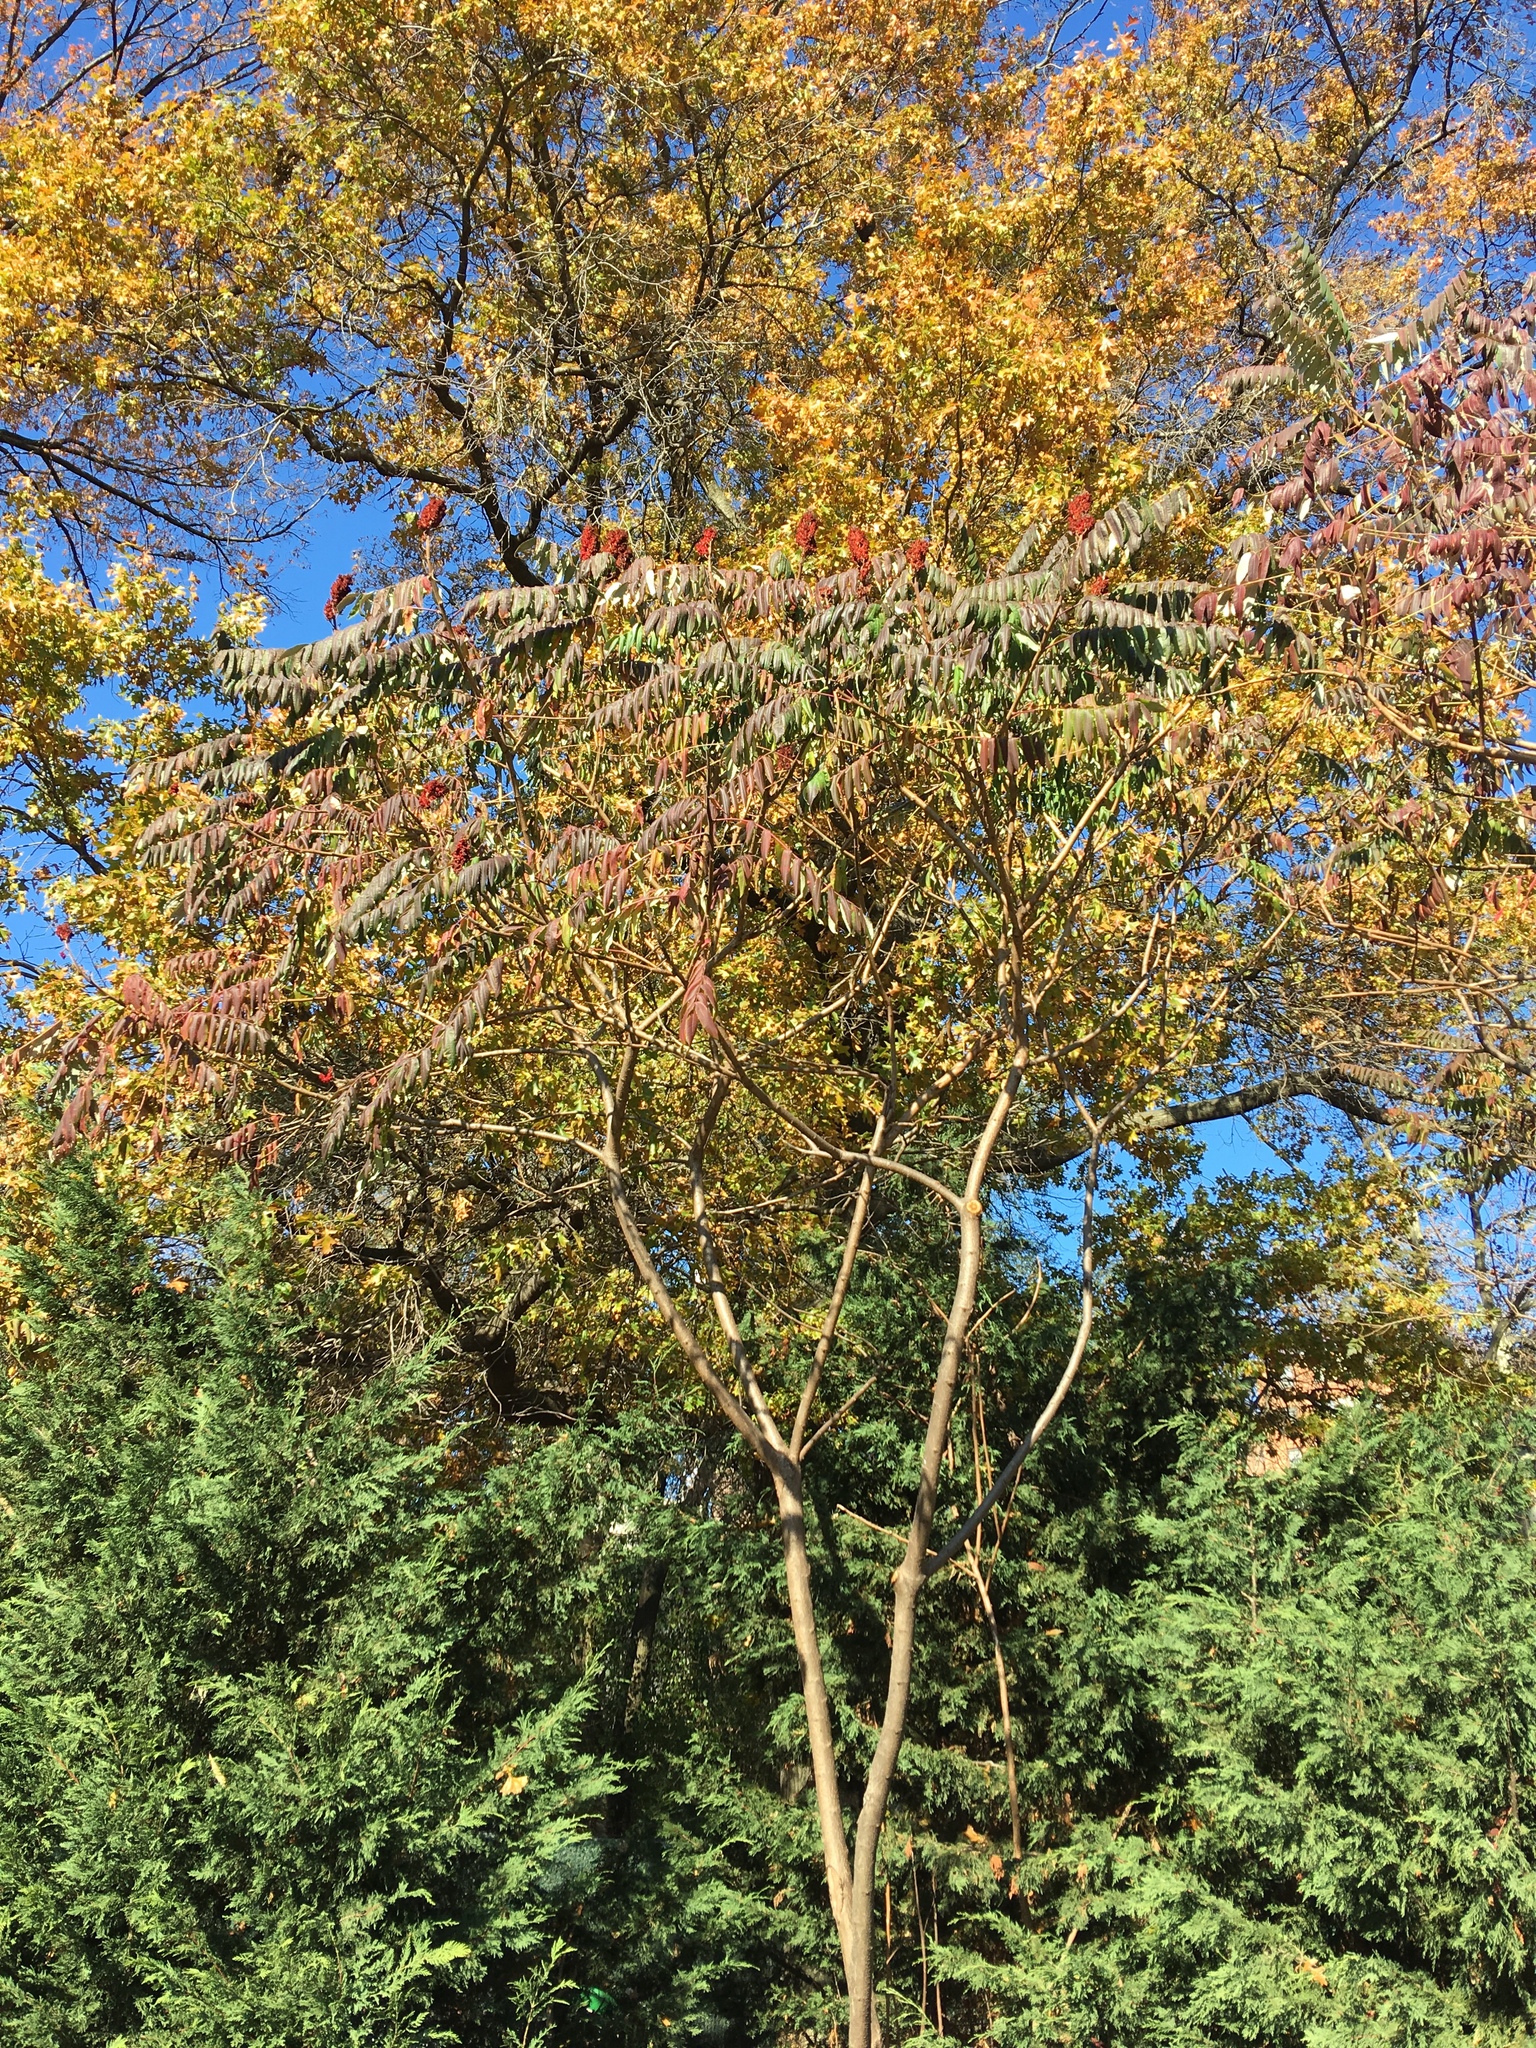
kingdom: Plantae
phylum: Tracheophyta
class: Magnoliopsida
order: Sapindales
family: Anacardiaceae
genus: Rhus
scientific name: Rhus glabra
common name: Scarlet sumac
